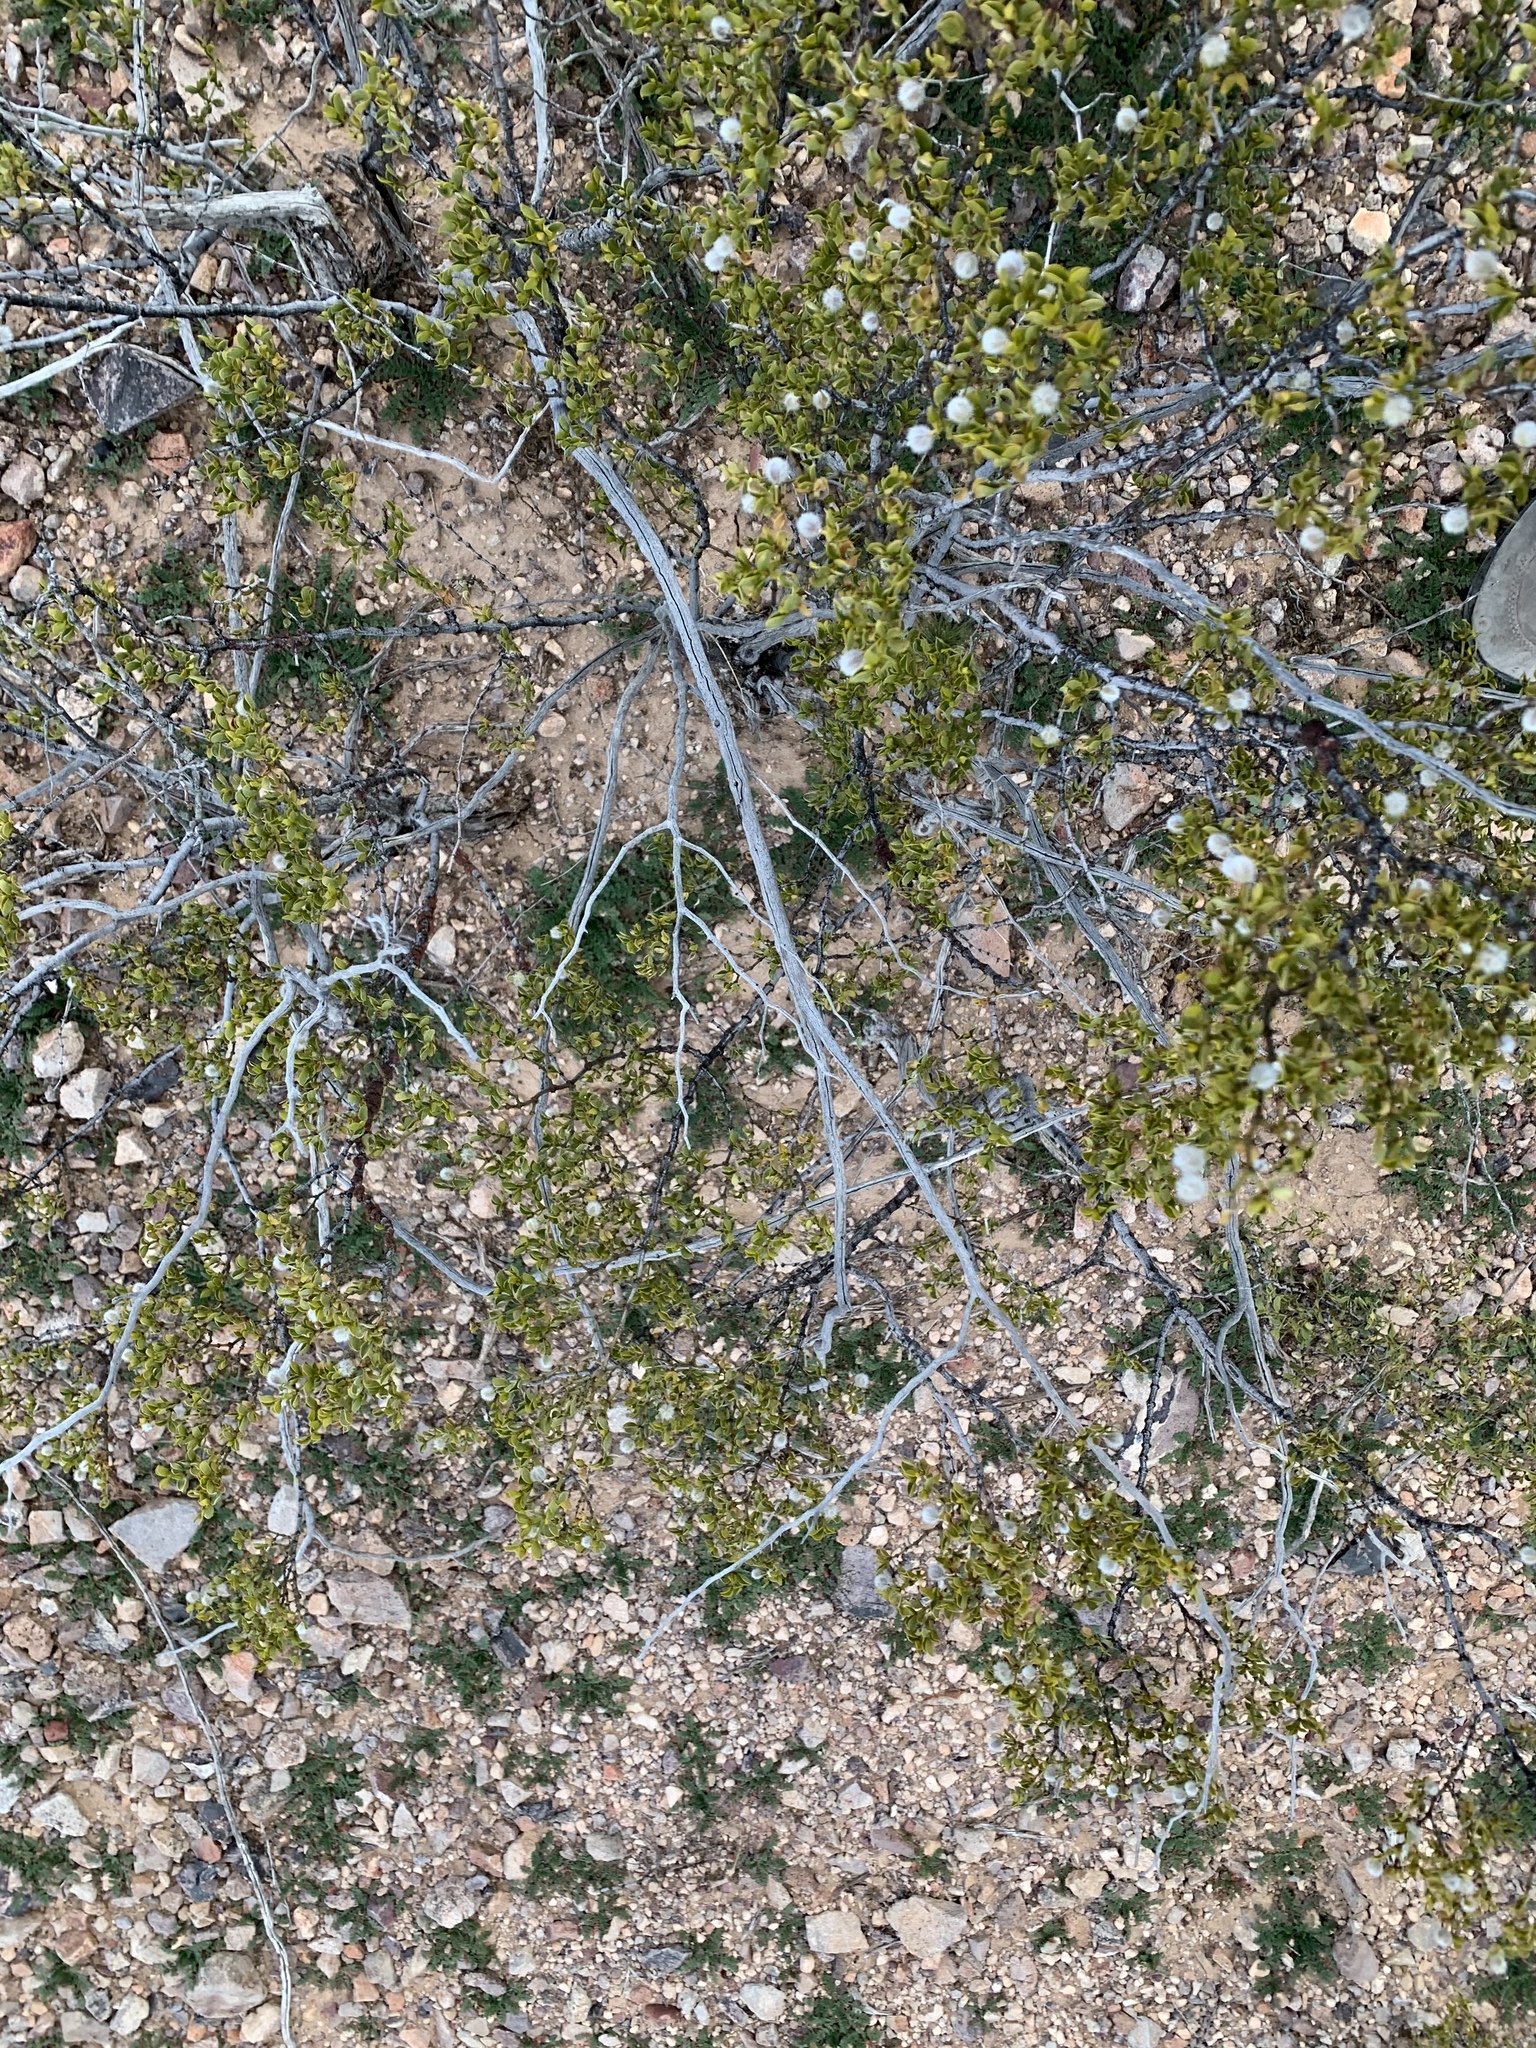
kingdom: Plantae
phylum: Tracheophyta
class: Magnoliopsida
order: Zygophyllales
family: Zygophyllaceae
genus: Larrea
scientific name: Larrea tridentata
